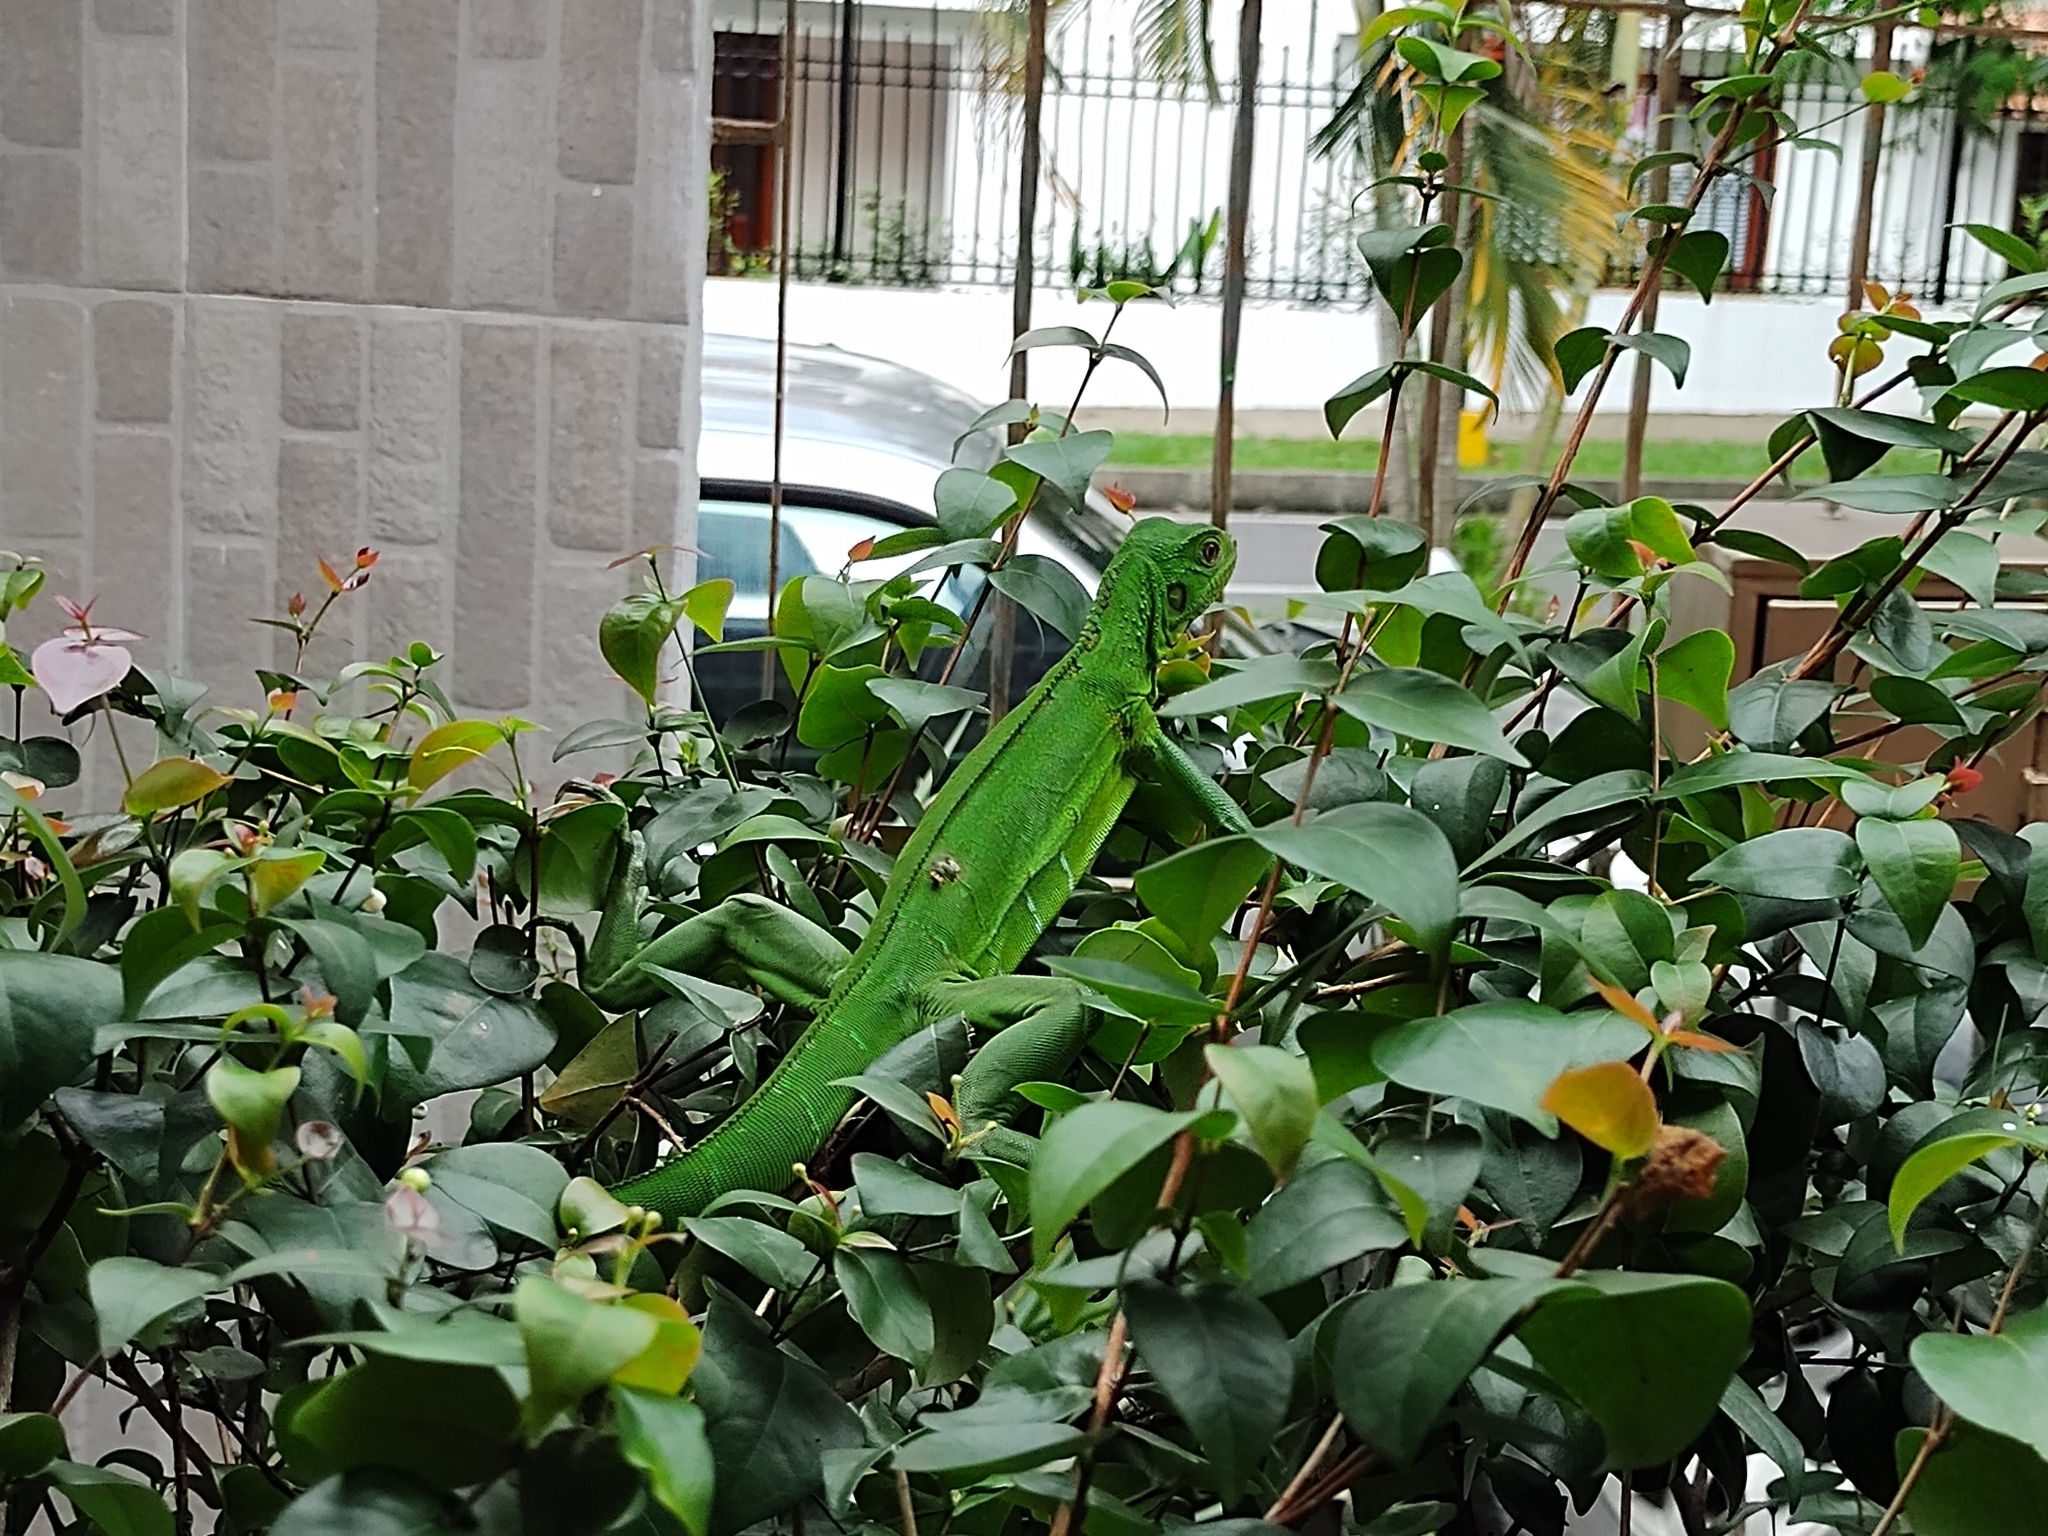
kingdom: Animalia
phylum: Chordata
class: Squamata
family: Iguanidae
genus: Iguana
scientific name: Iguana iguana
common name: Green iguana
